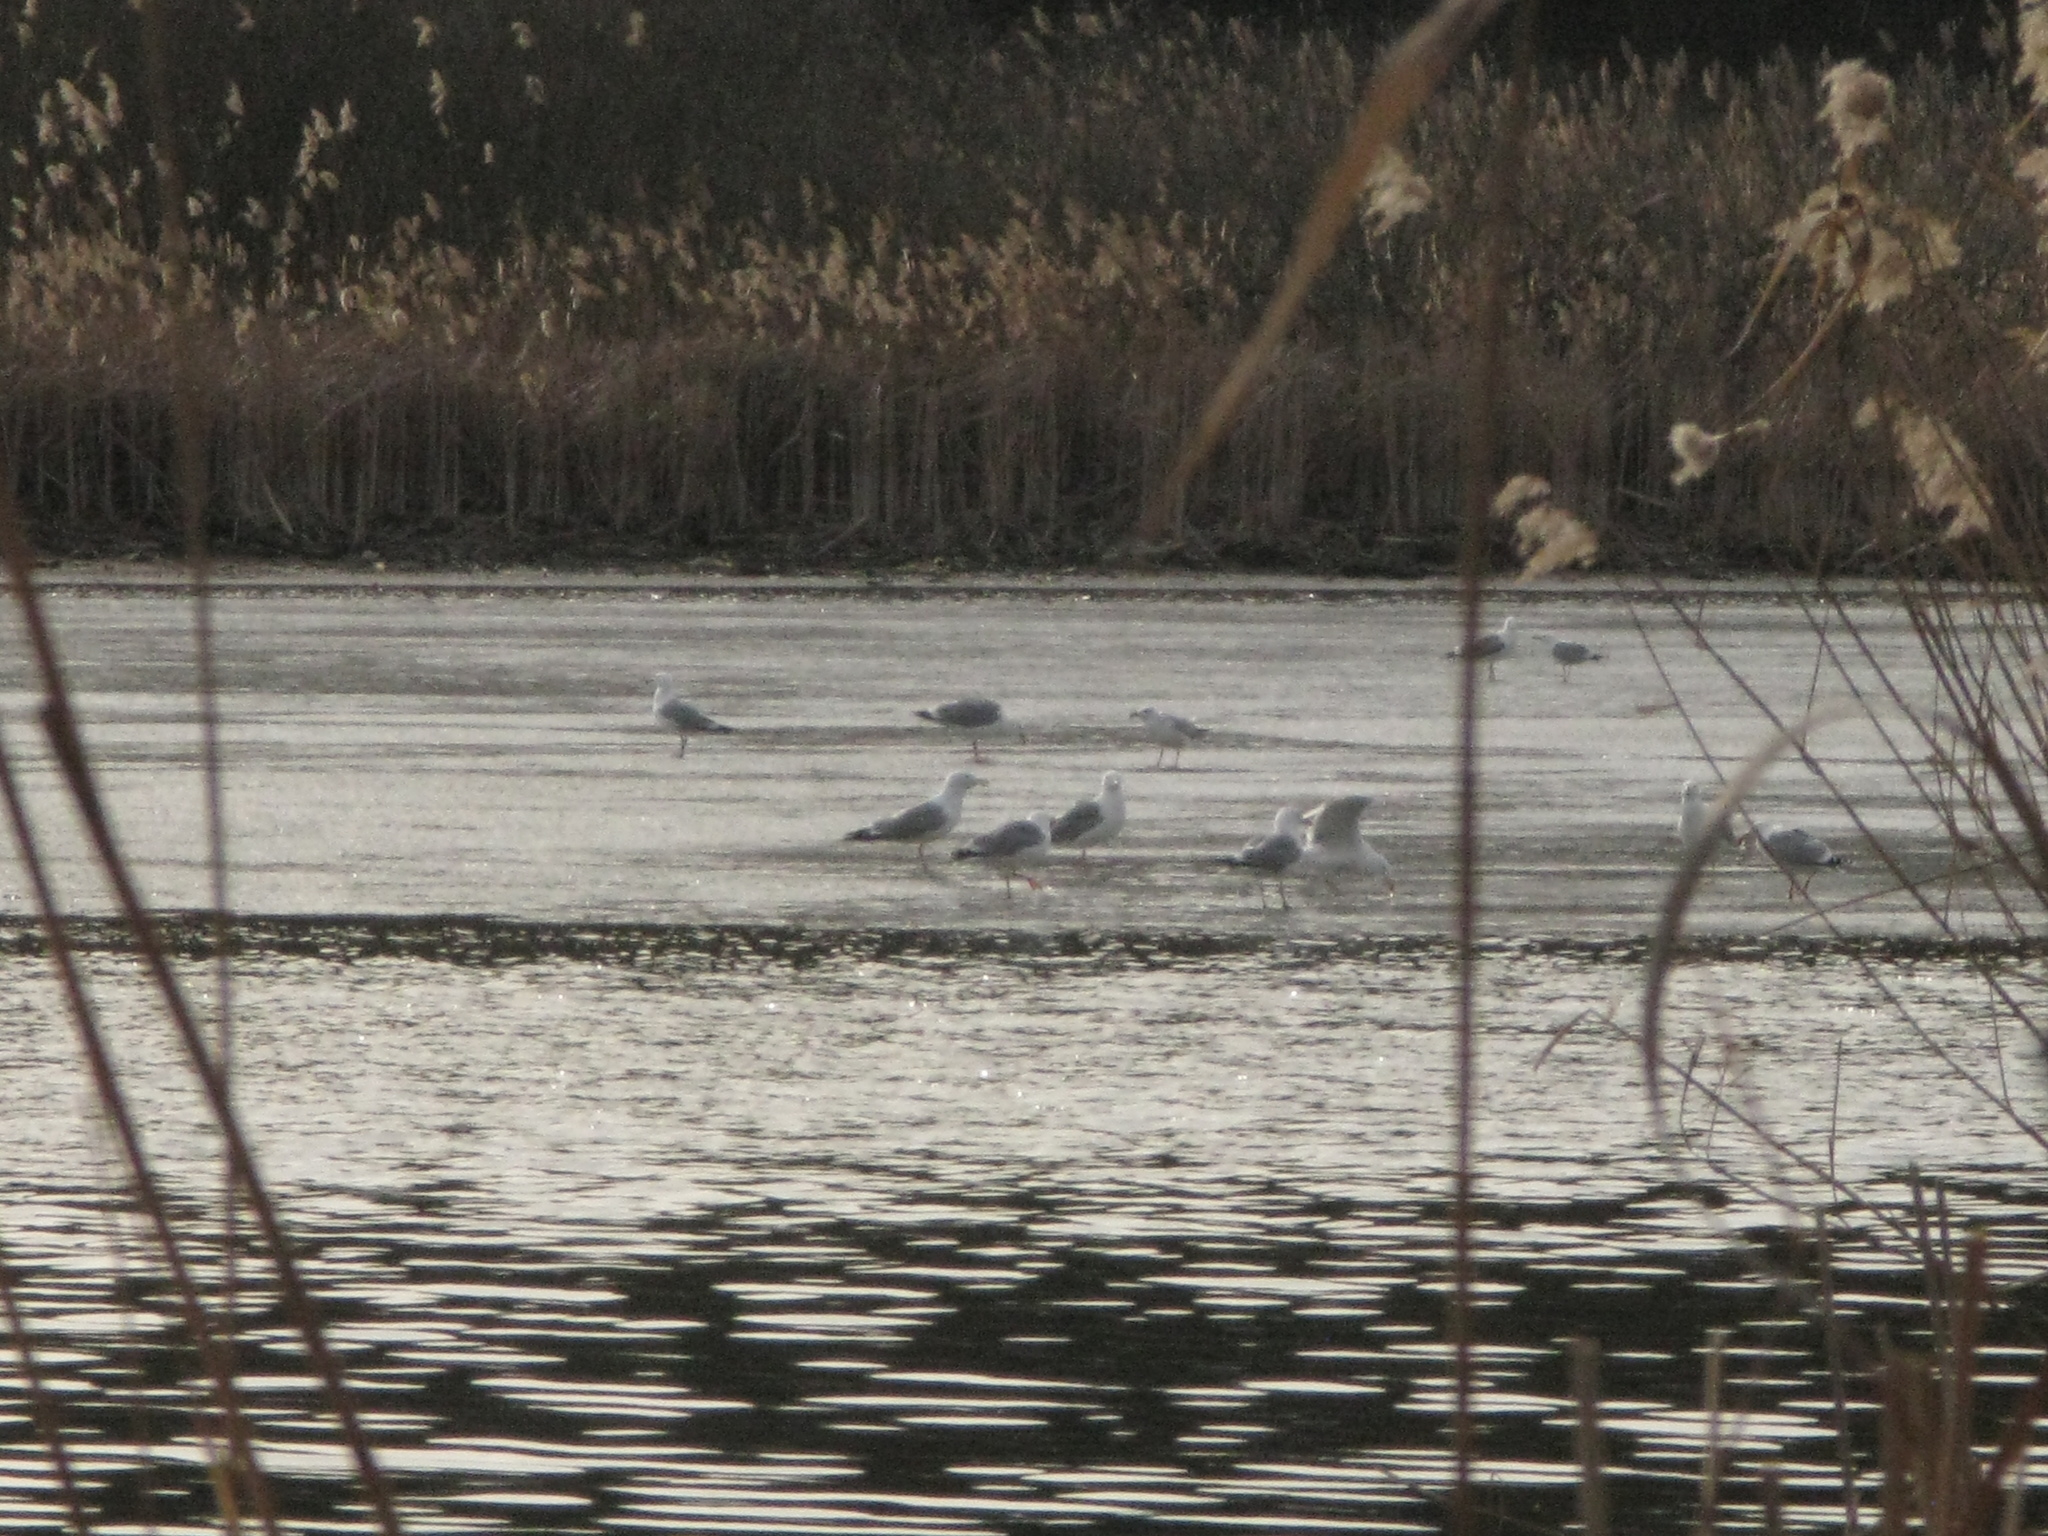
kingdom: Animalia
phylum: Chordata
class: Aves
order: Charadriiformes
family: Laridae
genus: Larus
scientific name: Larus cachinnans
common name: Caspian gull
